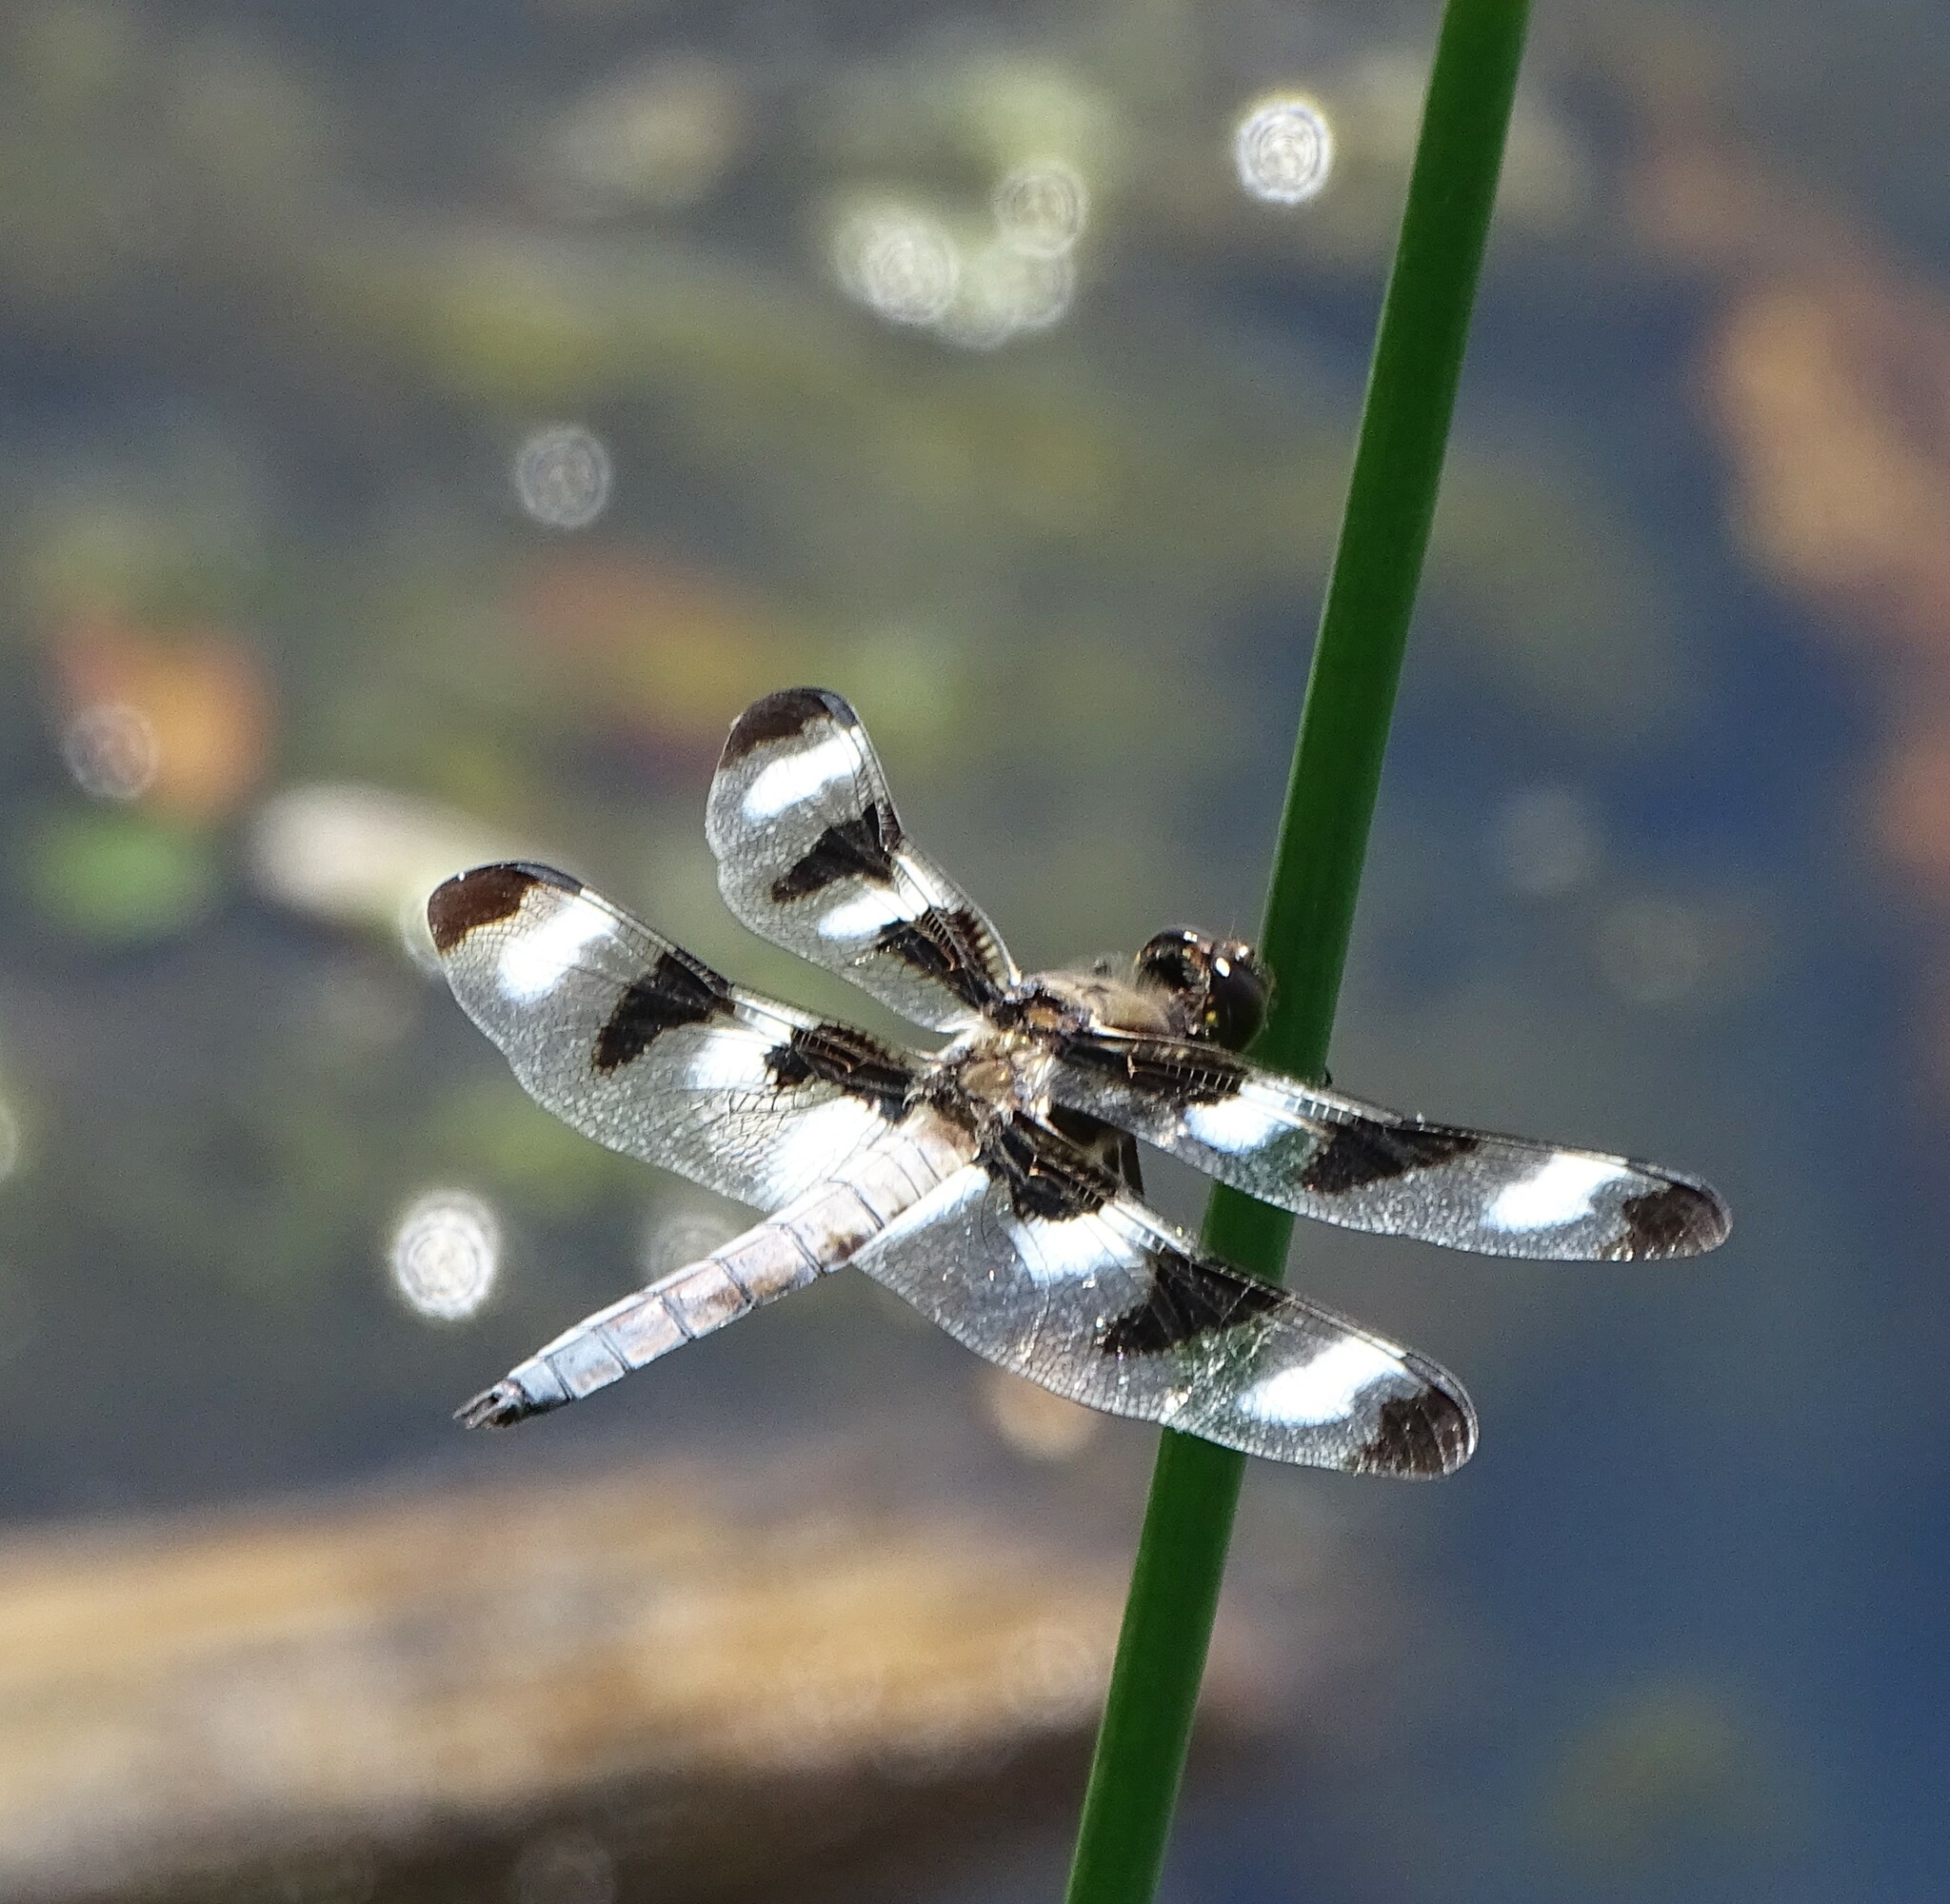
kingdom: Animalia
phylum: Arthropoda
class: Insecta
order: Odonata
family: Libellulidae
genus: Libellula
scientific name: Libellula pulchella
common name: Twelve-spotted skimmer
